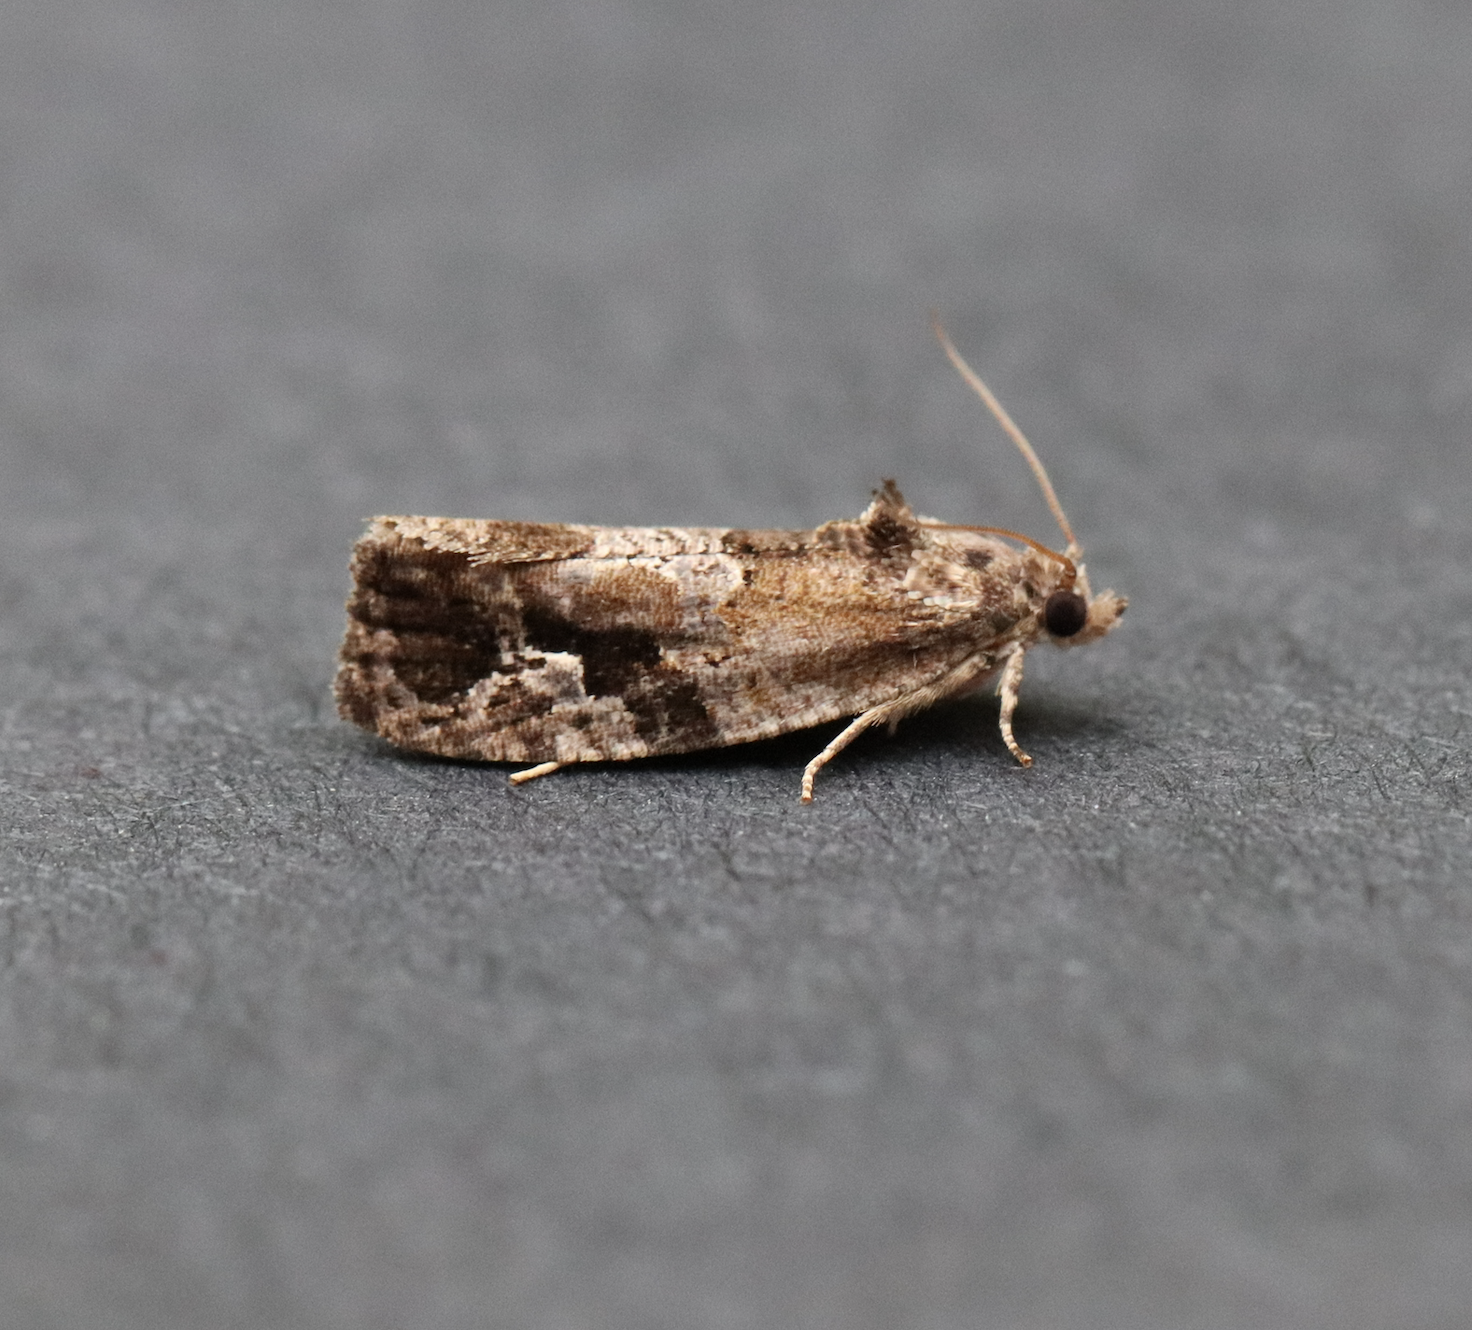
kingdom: Animalia
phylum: Arthropoda
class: Insecta
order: Lepidoptera
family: Tortricidae
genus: Eudemis
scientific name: Eudemis porphyrana
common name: Apple marble
